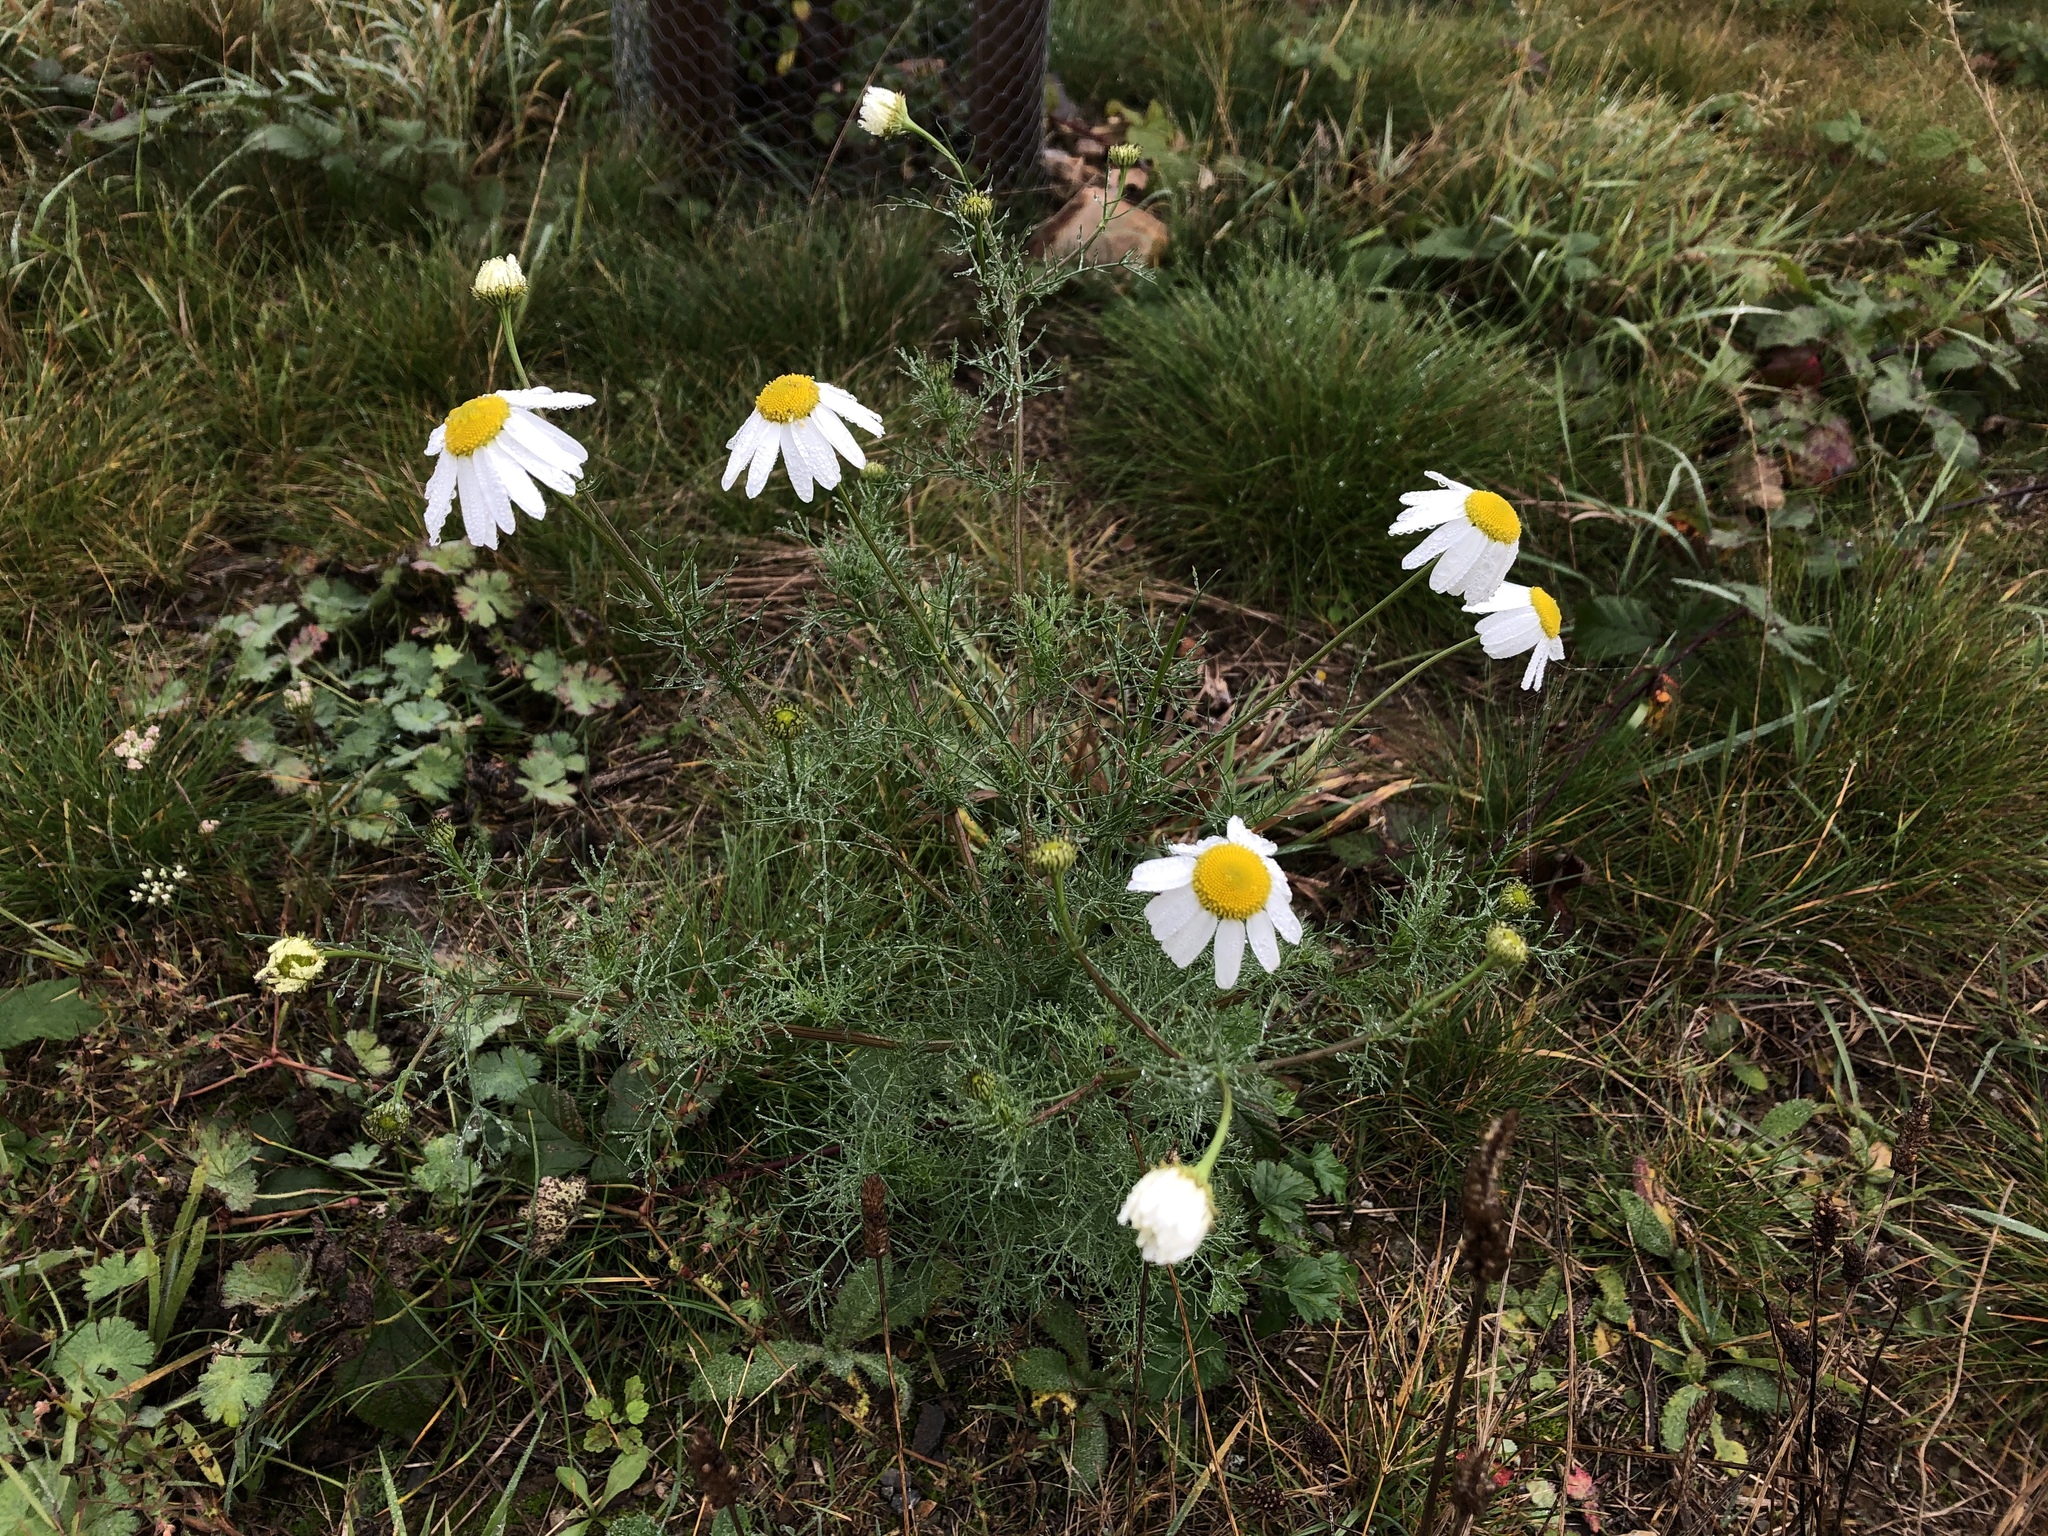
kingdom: Plantae
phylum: Tracheophyta
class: Magnoliopsida
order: Asterales
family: Asteraceae
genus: Tripleurospermum
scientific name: Tripleurospermum inodorum
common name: Scentless mayweed
